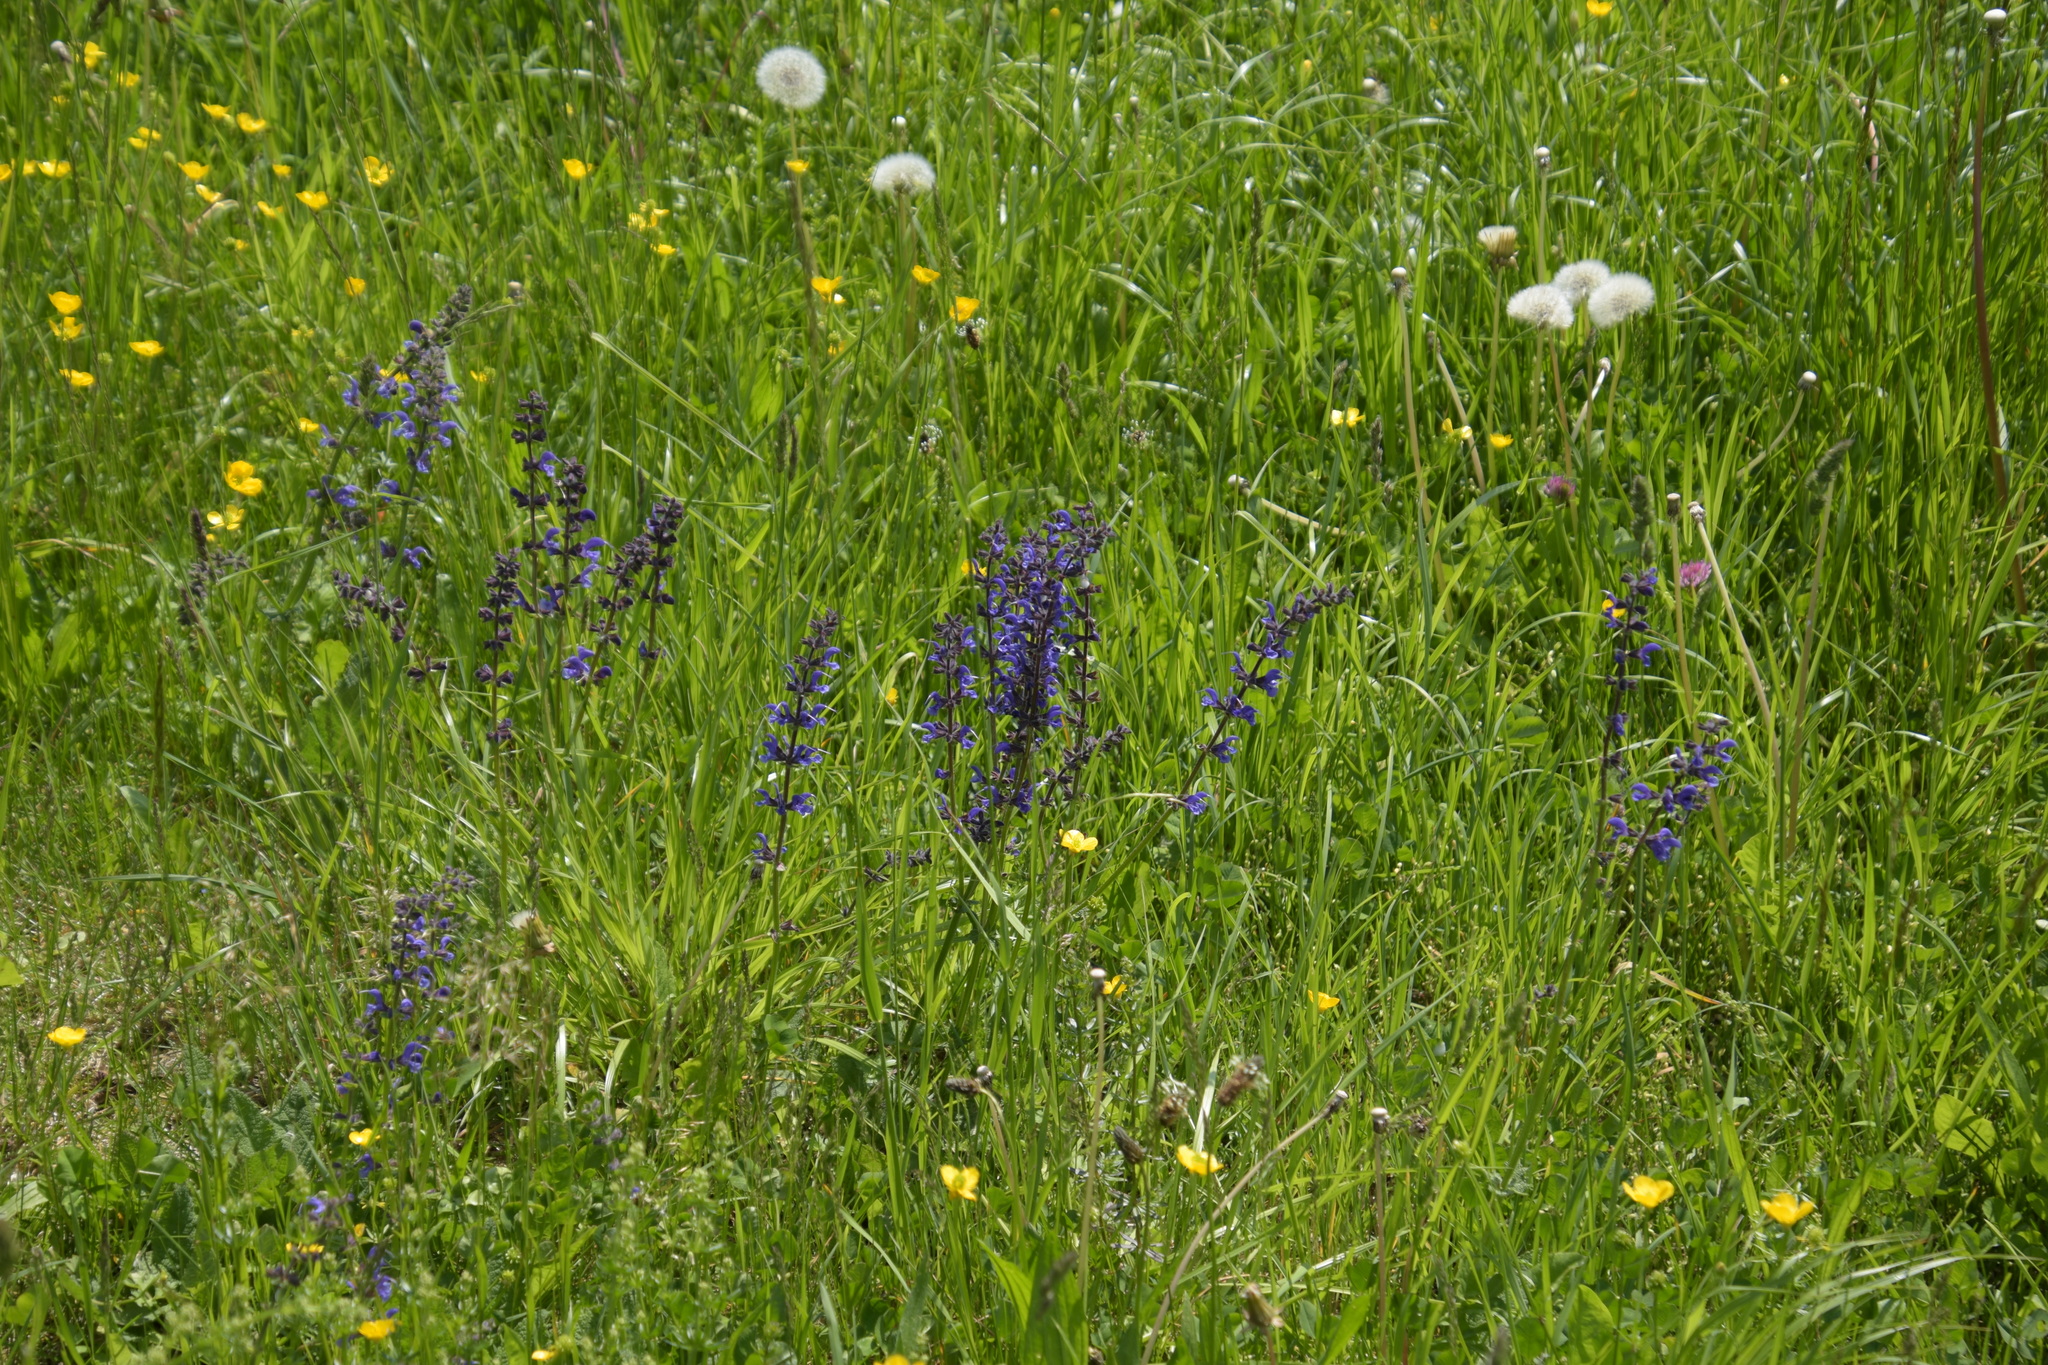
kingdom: Plantae
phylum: Tracheophyta
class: Magnoliopsida
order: Lamiales
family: Lamiaceae
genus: Salvia
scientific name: Salvia pratensis
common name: Meadow sage
